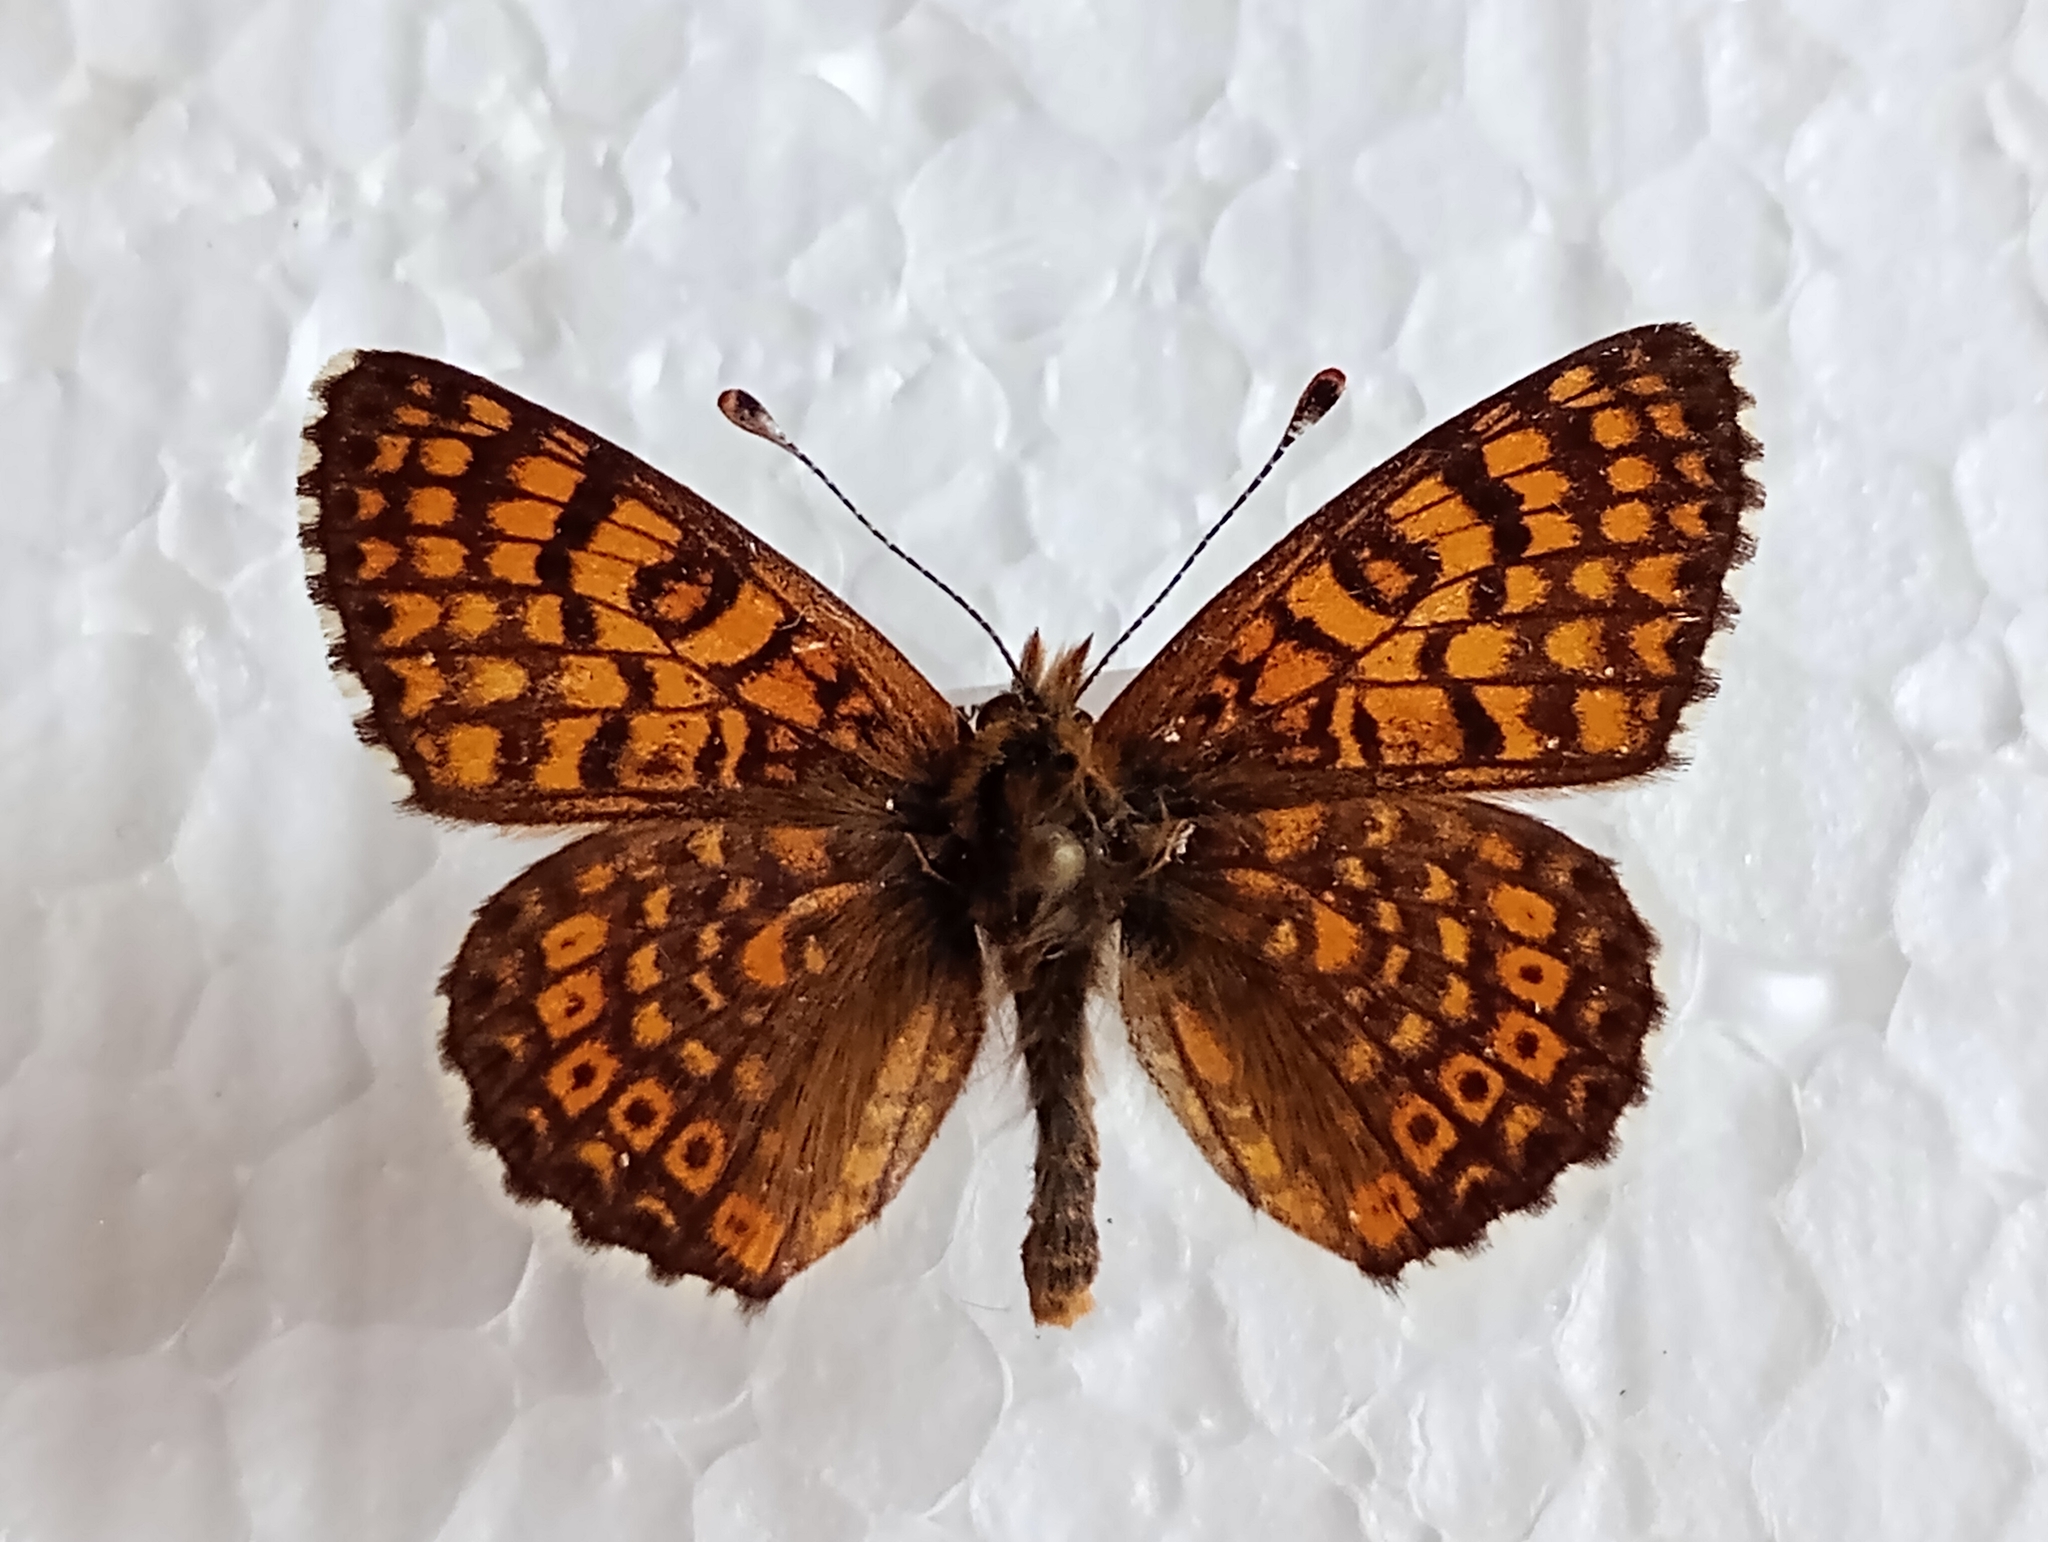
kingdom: Animalia
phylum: Arthropoda
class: Insecta
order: Lepidoptera
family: Nymphalidae
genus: Melitaea
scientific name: Melitaea cinxia
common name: Glanville fritillary
